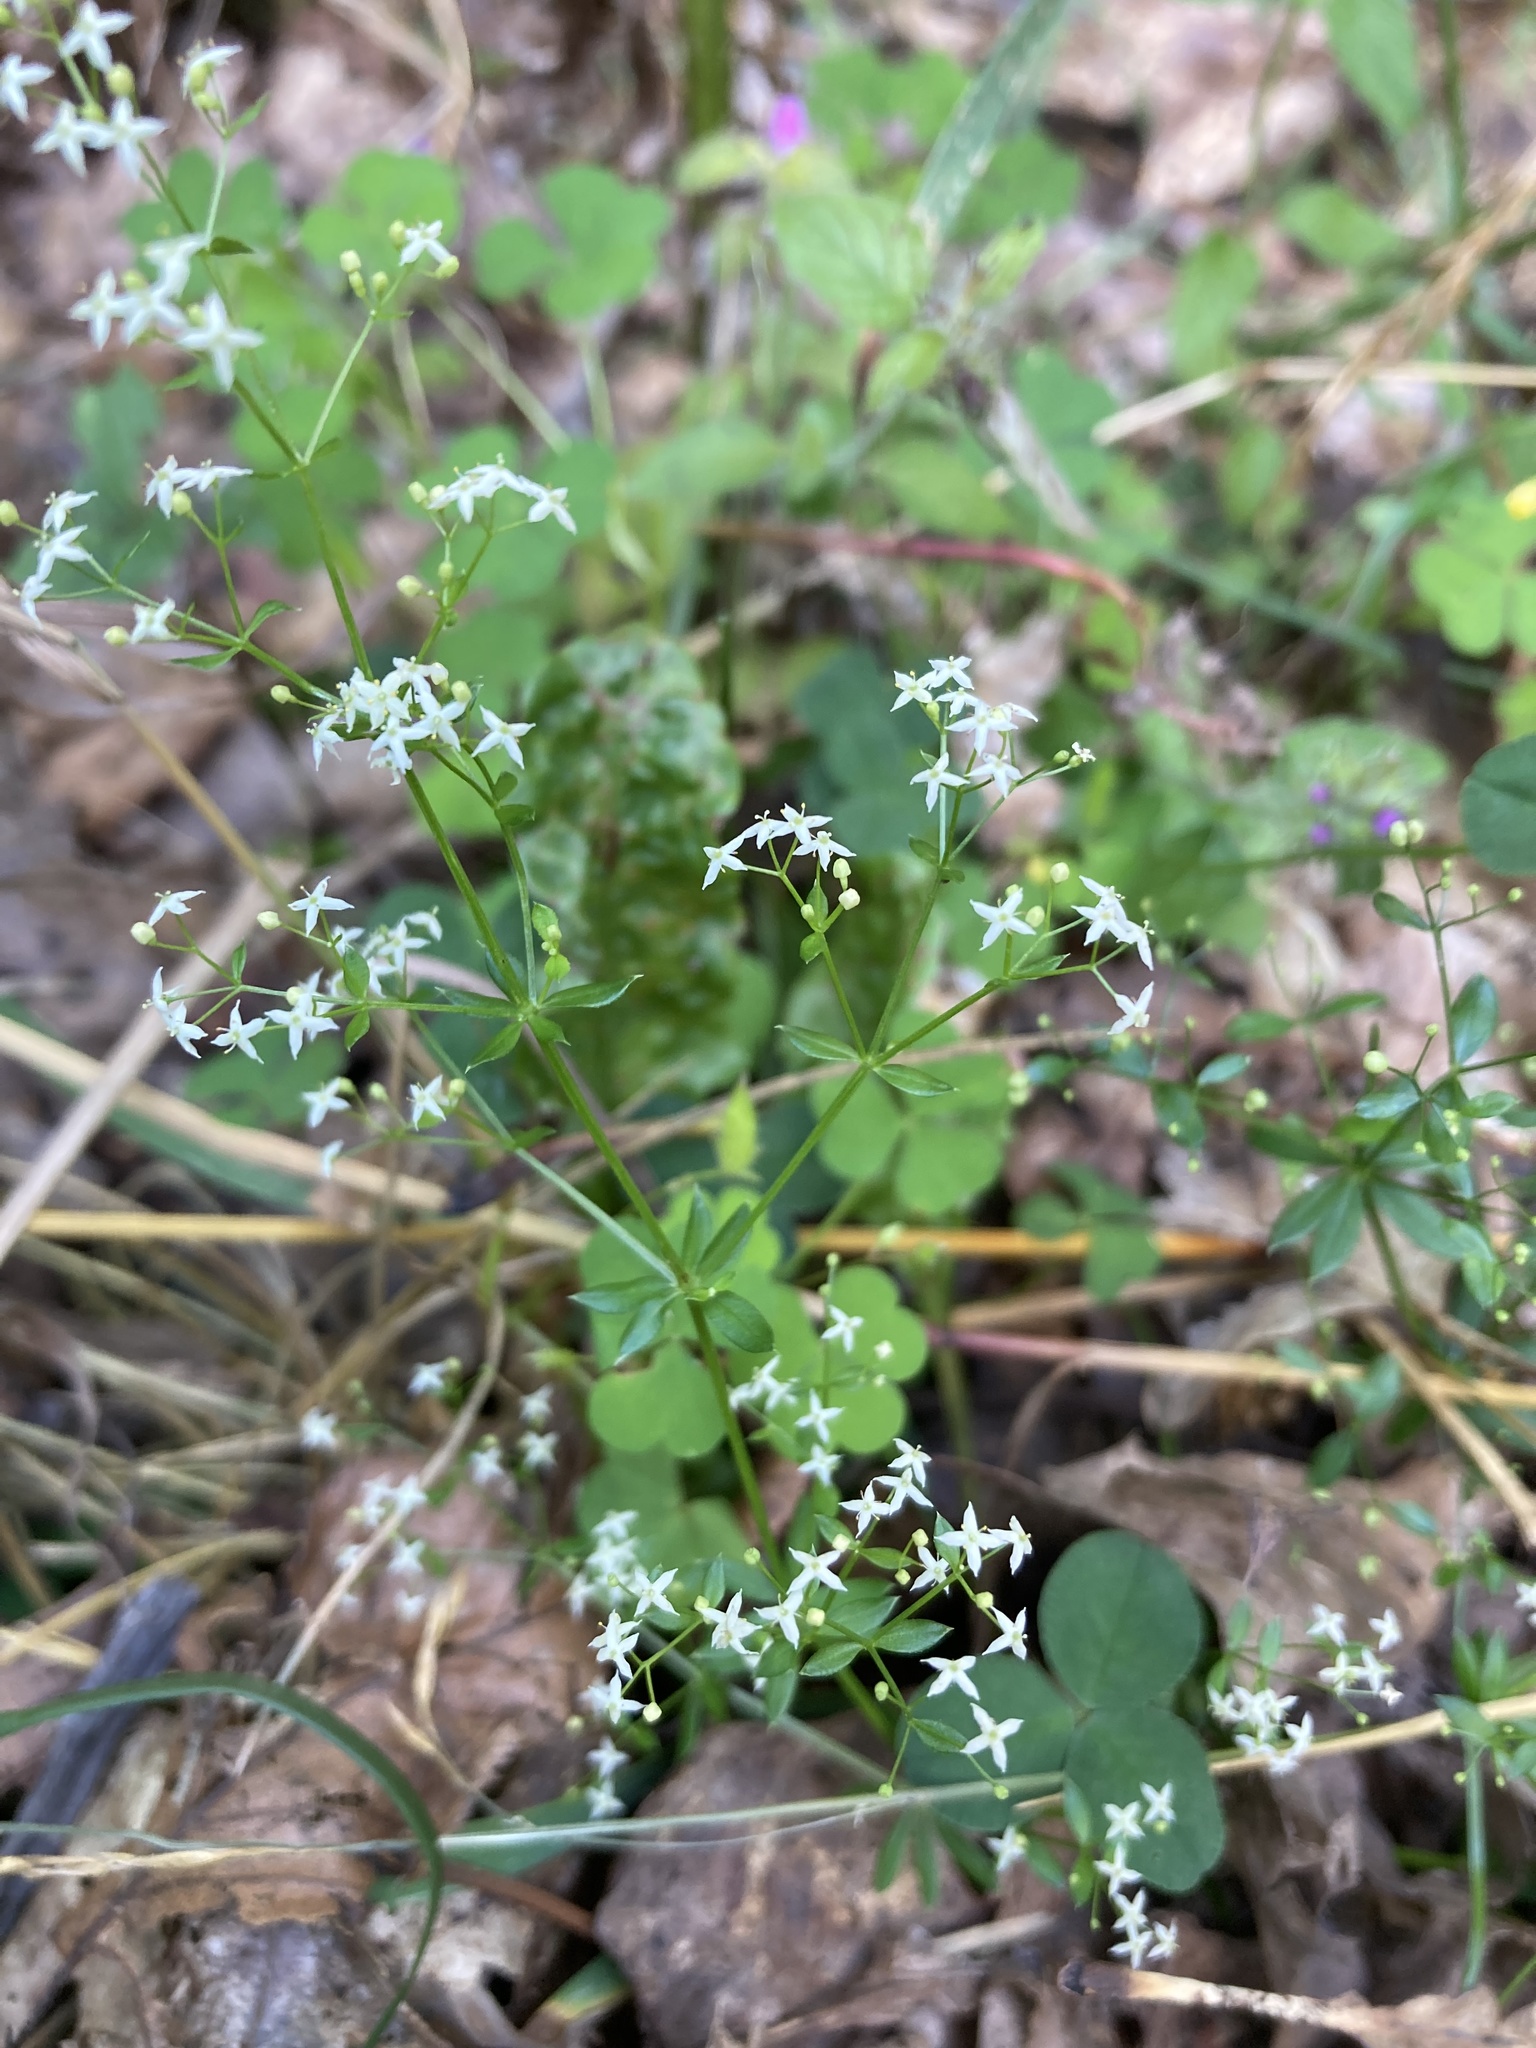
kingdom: Plantae
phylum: Tracheophyta
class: Magnoliopsida
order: Gentianales
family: Rubiaceae
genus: Galium
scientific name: Galium mollugo
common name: Hedge bedstraw
